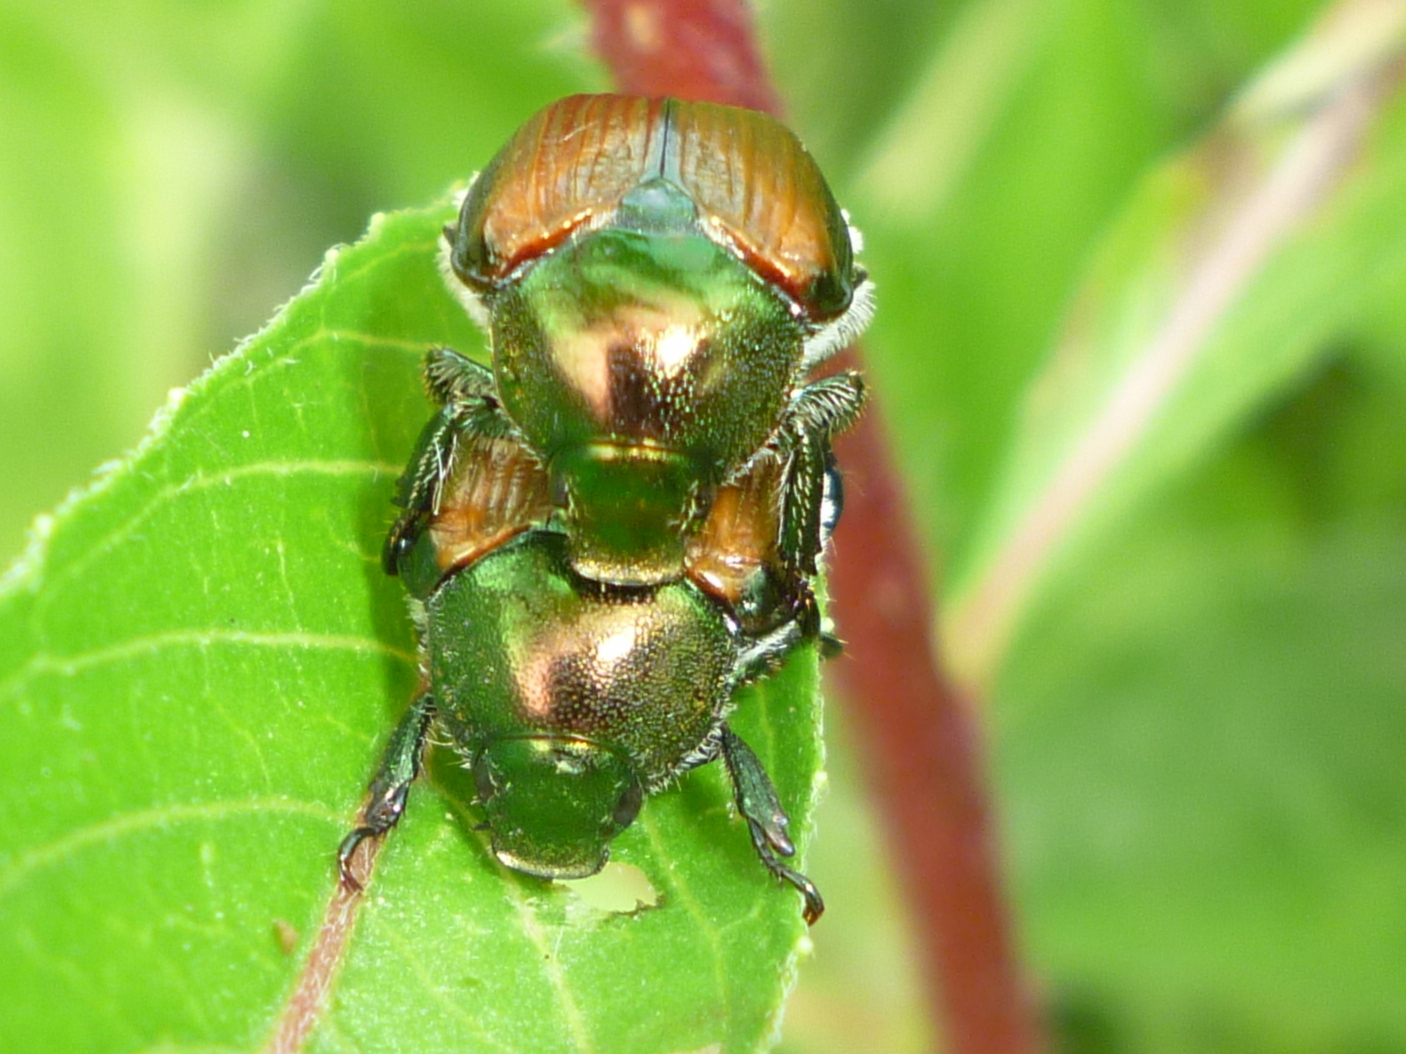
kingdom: Animalia
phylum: Arthropoda
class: Insecta
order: Coleoptera
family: Scarabaeidae
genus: Popillia
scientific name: Popillia japonica
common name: Japanese beetle
